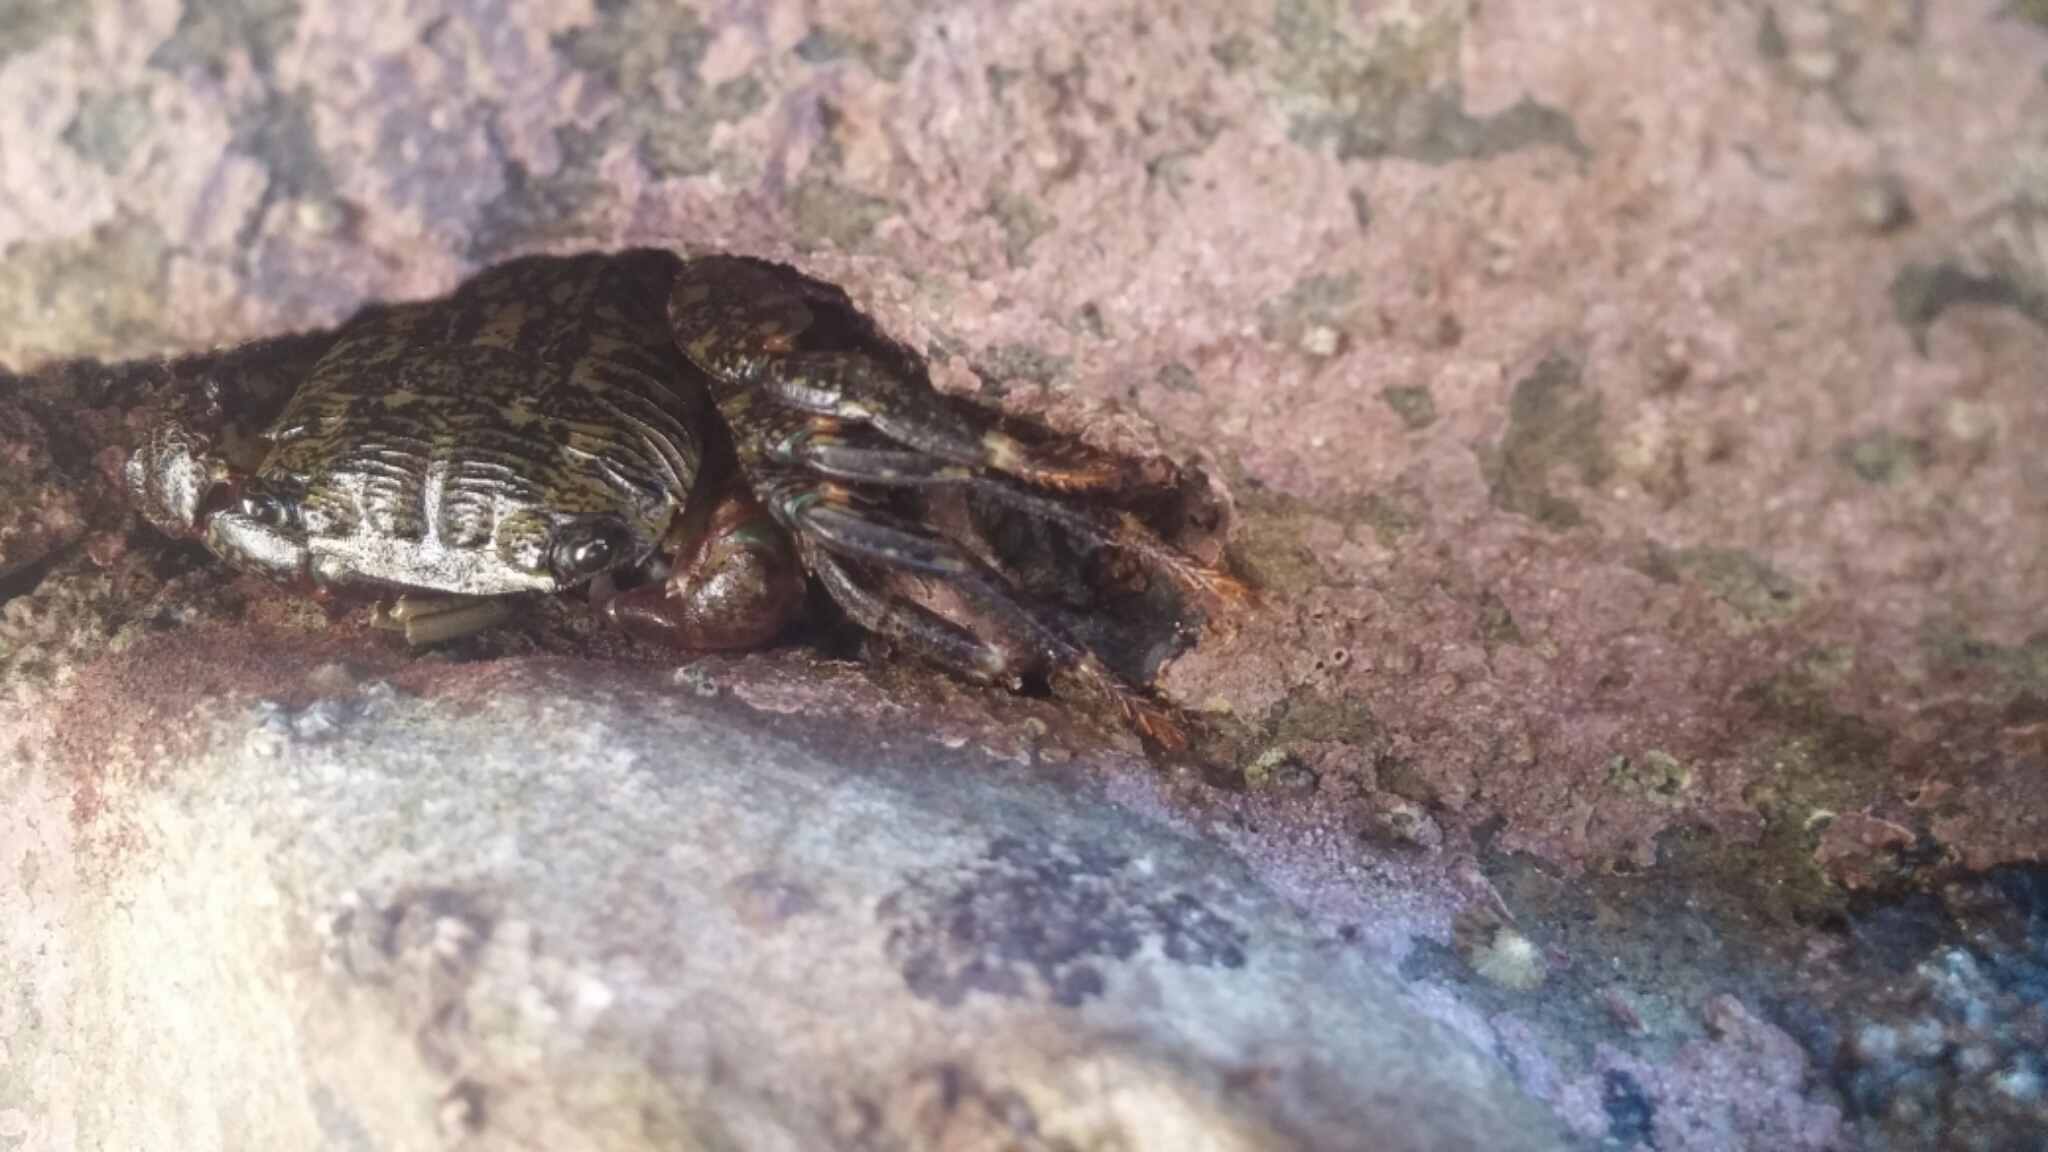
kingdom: Animalia
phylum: Arthropoda
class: Malacostraca
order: Decapoda
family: Grapsidae
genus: Pachygrapsus
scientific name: Pachygrapsus crassipes
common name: Striped shore crab
